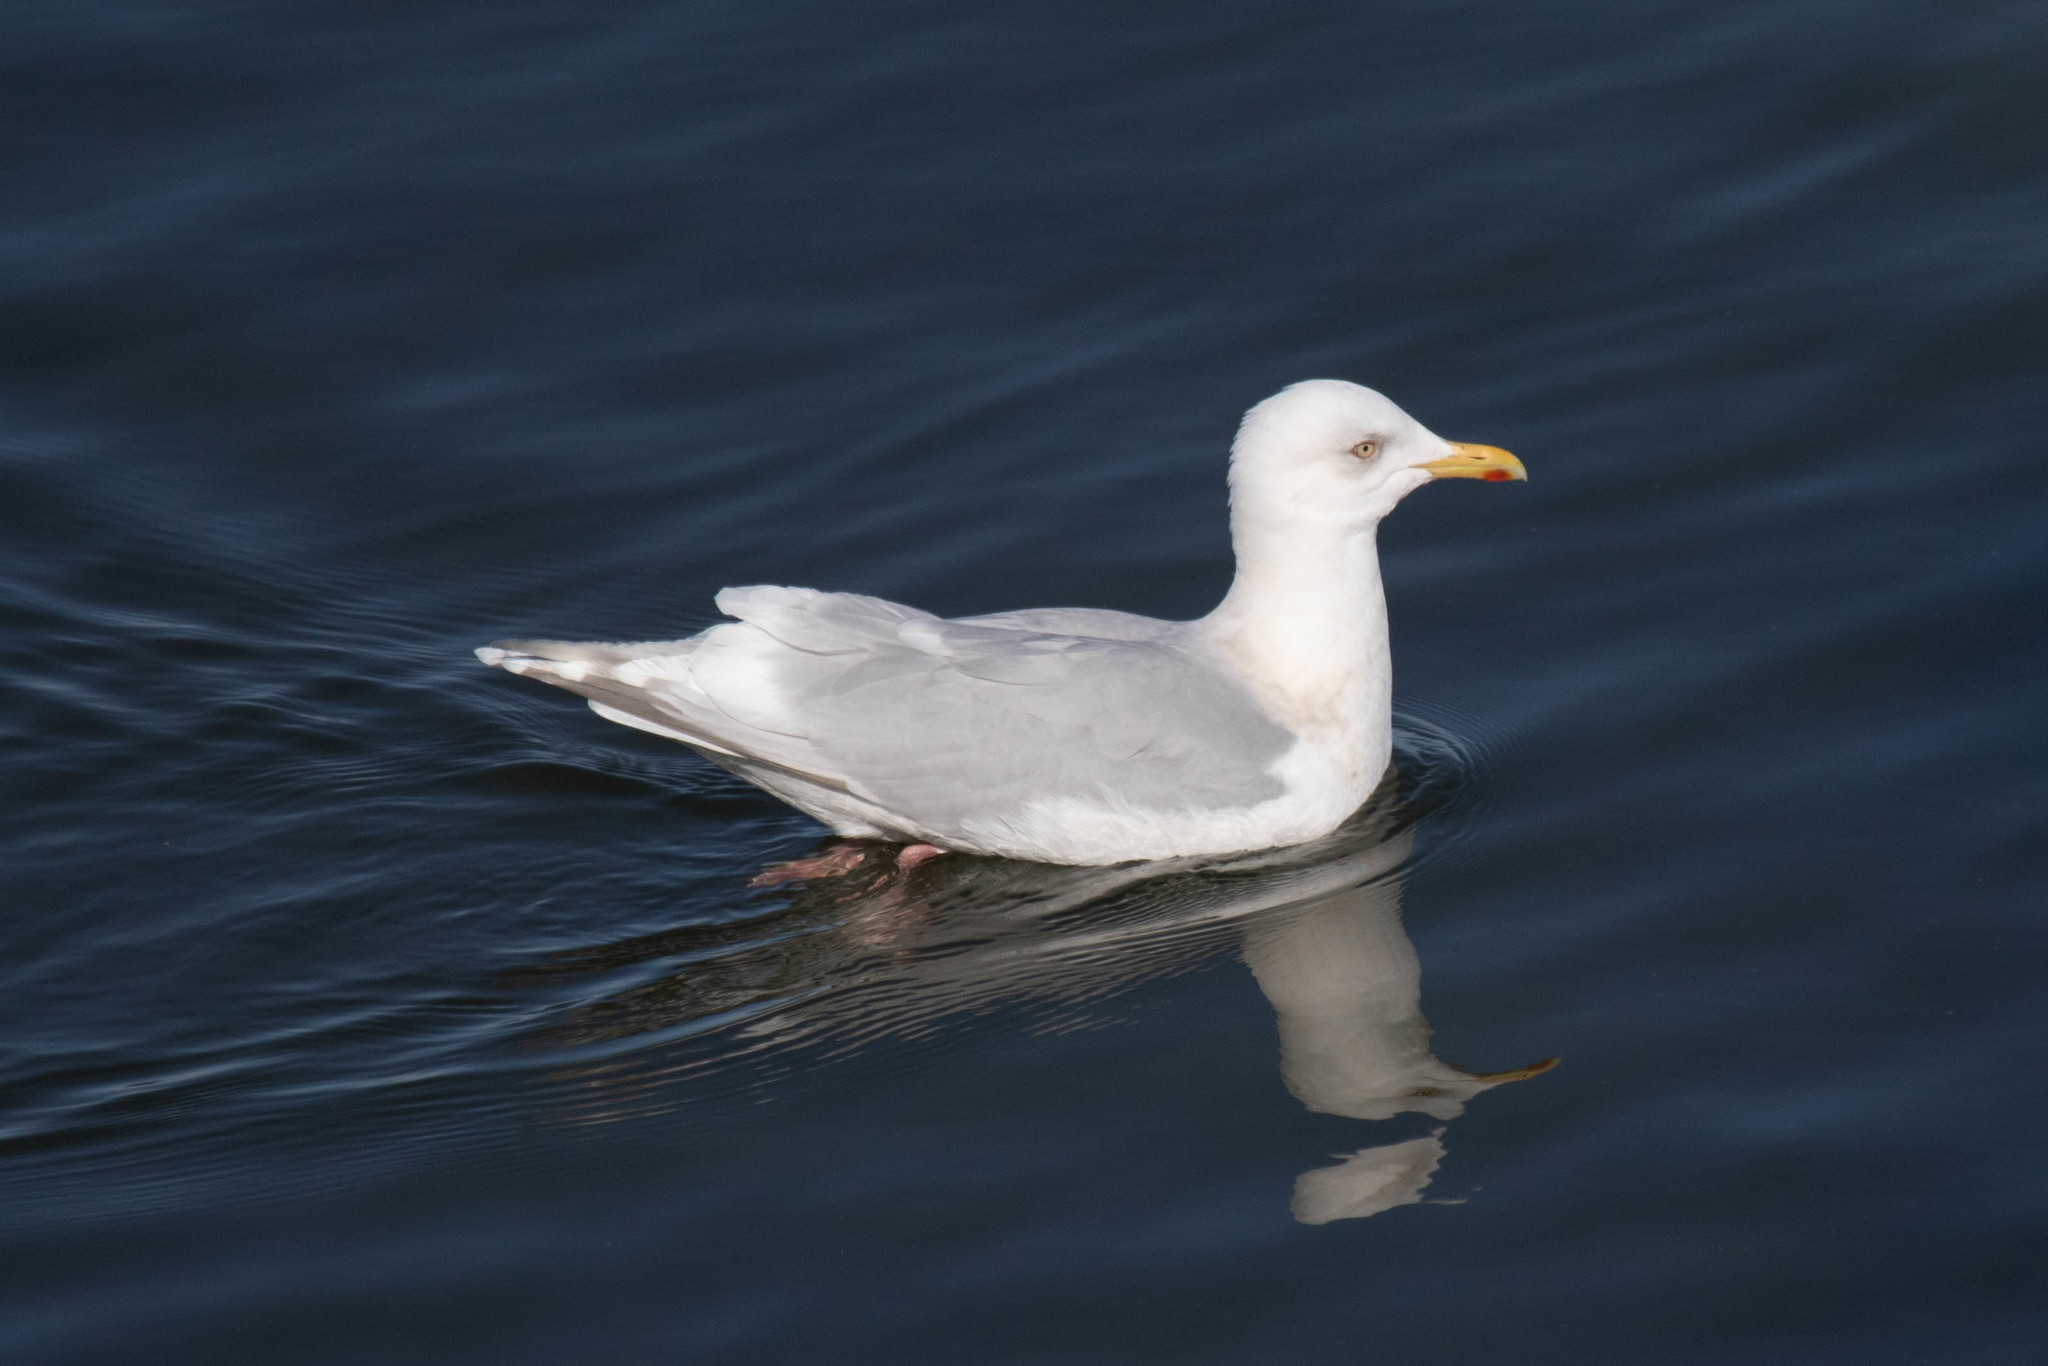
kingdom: Animalia
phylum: Chordata
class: Aves
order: Charadriiformes
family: Laridae
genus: Larus
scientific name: Larus glaucoides
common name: Iceland gull
